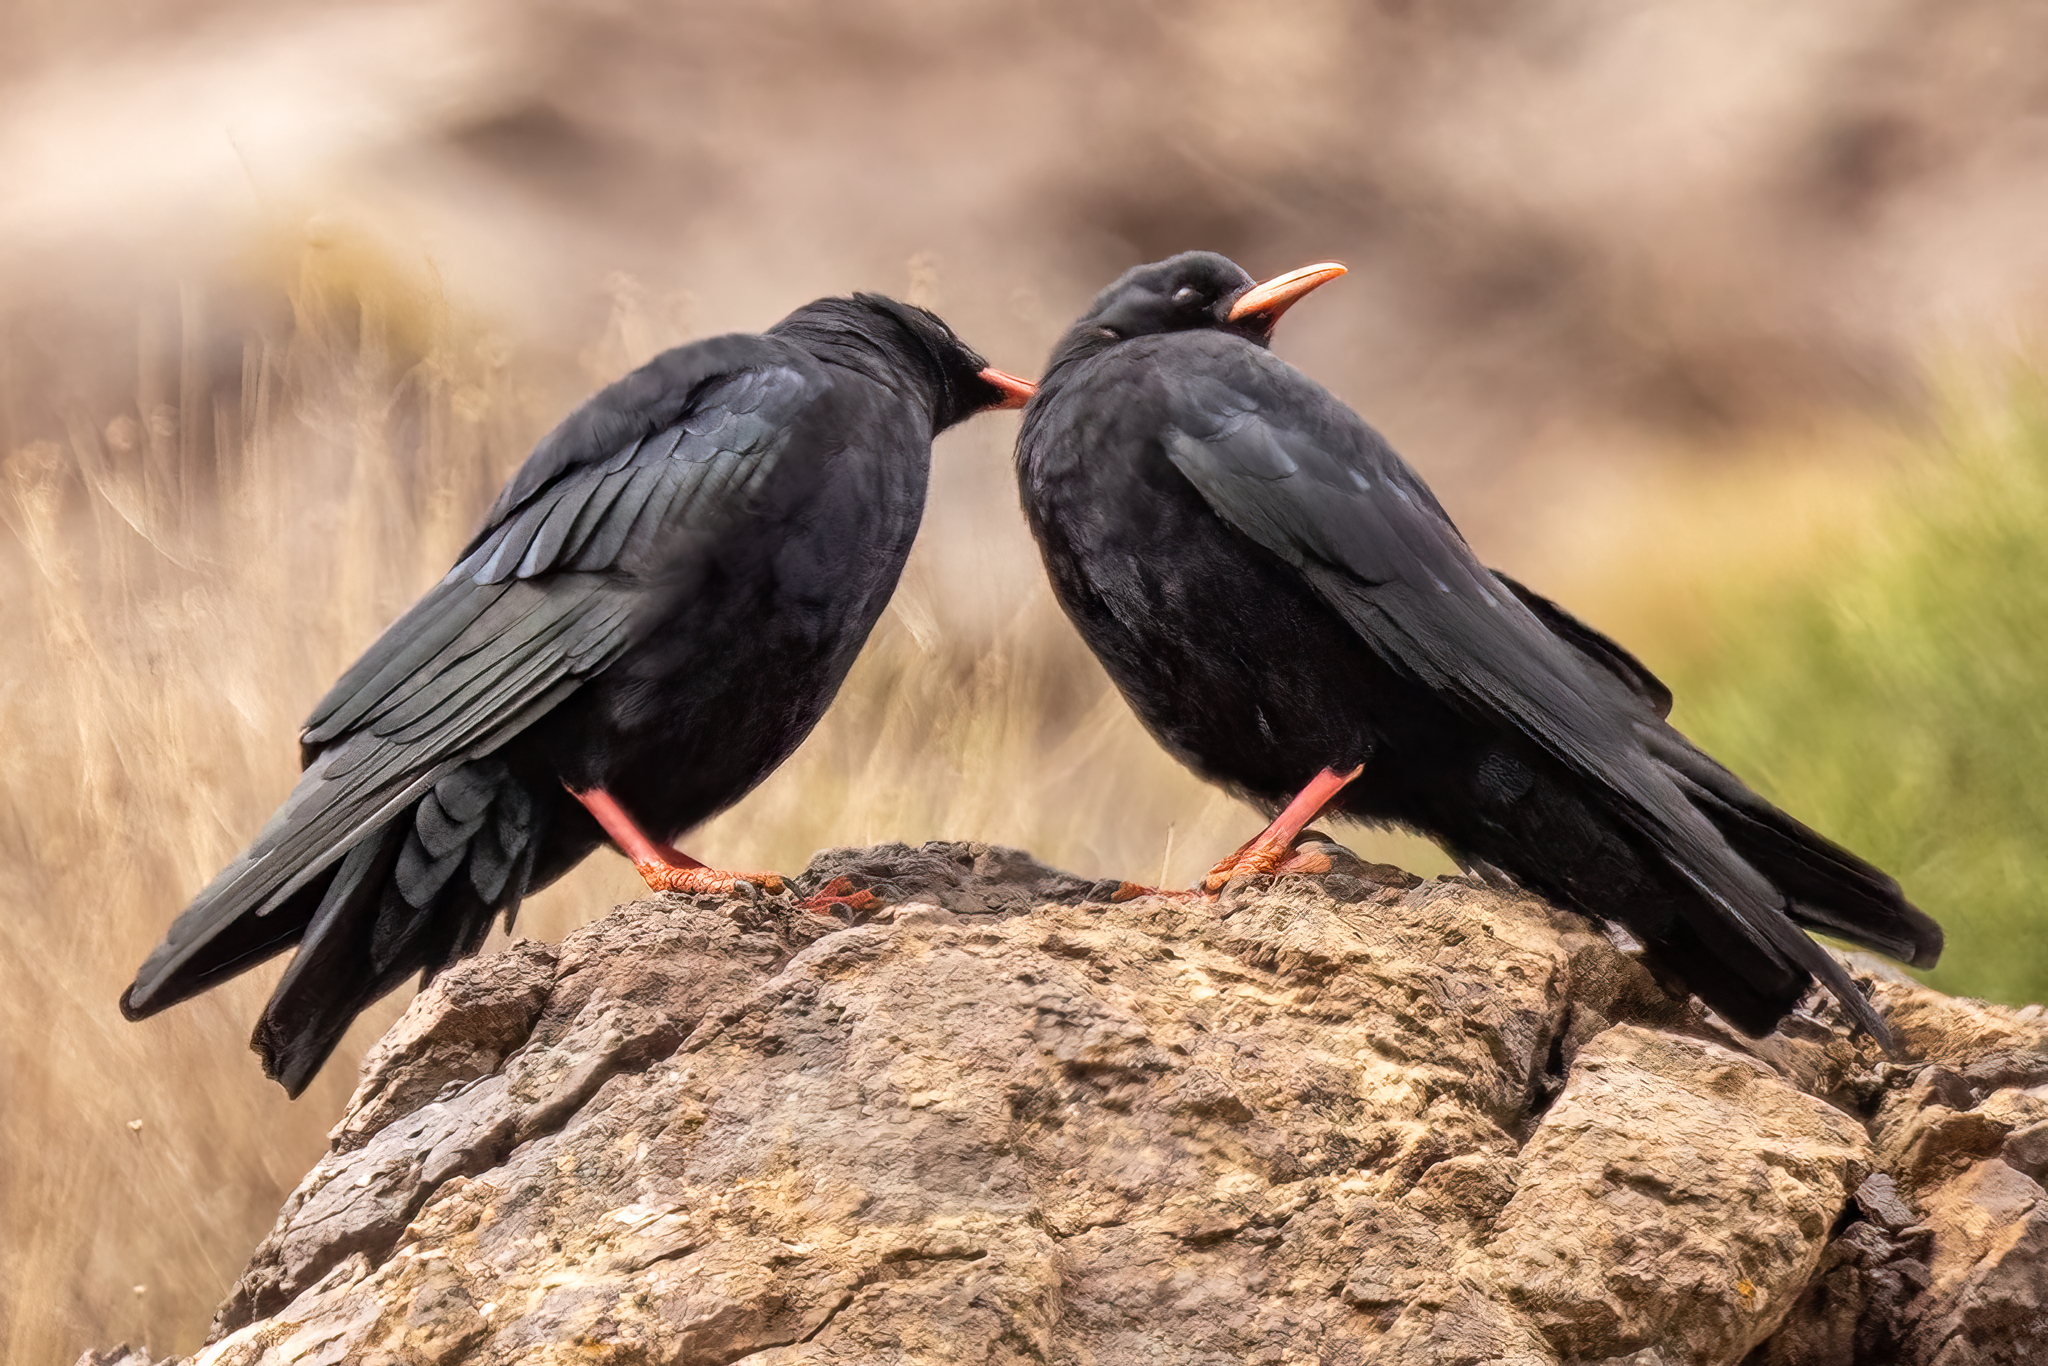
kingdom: Animalia
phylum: Chordata
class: Aves
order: Passeriformes
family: Corvidae
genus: Pyrrhocorax
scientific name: Pyrrhocorax pyrrhocorax
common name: Red-billed chough
